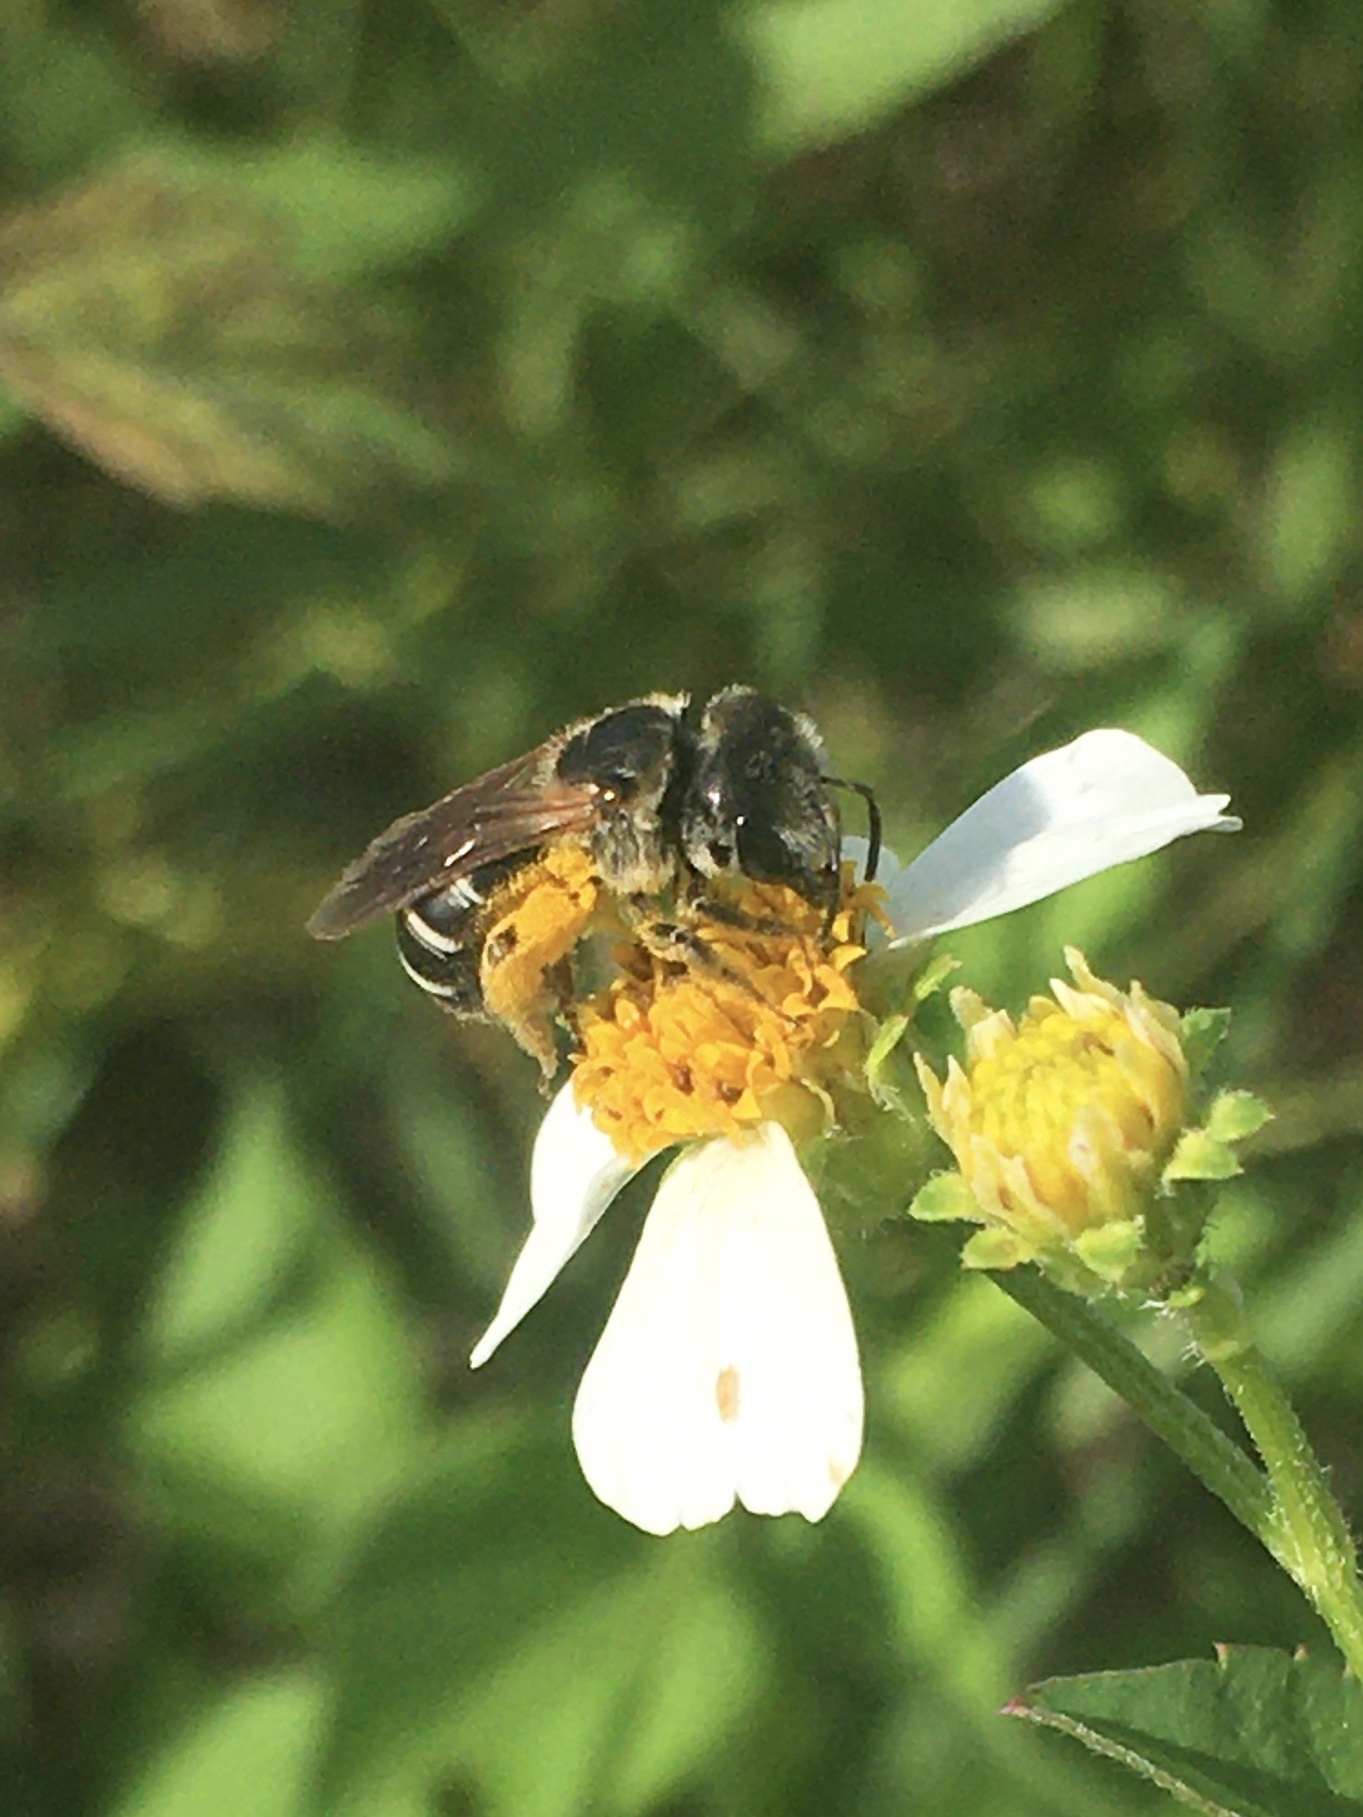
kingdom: Animalia
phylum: Arthropoda
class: Insecta
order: Hymenoptera
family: Halictidae
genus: Halictus
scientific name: Halictus poeyi
